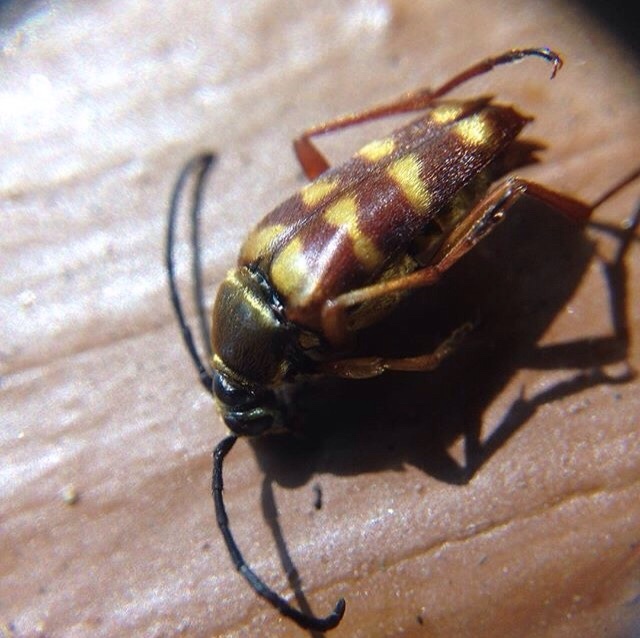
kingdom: Animalia
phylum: Arthropoda
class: Insecta
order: Coleoptera
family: Cerambycidae
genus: Typocerus
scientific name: Typocerus velutinus
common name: Banded longhorn beetle
